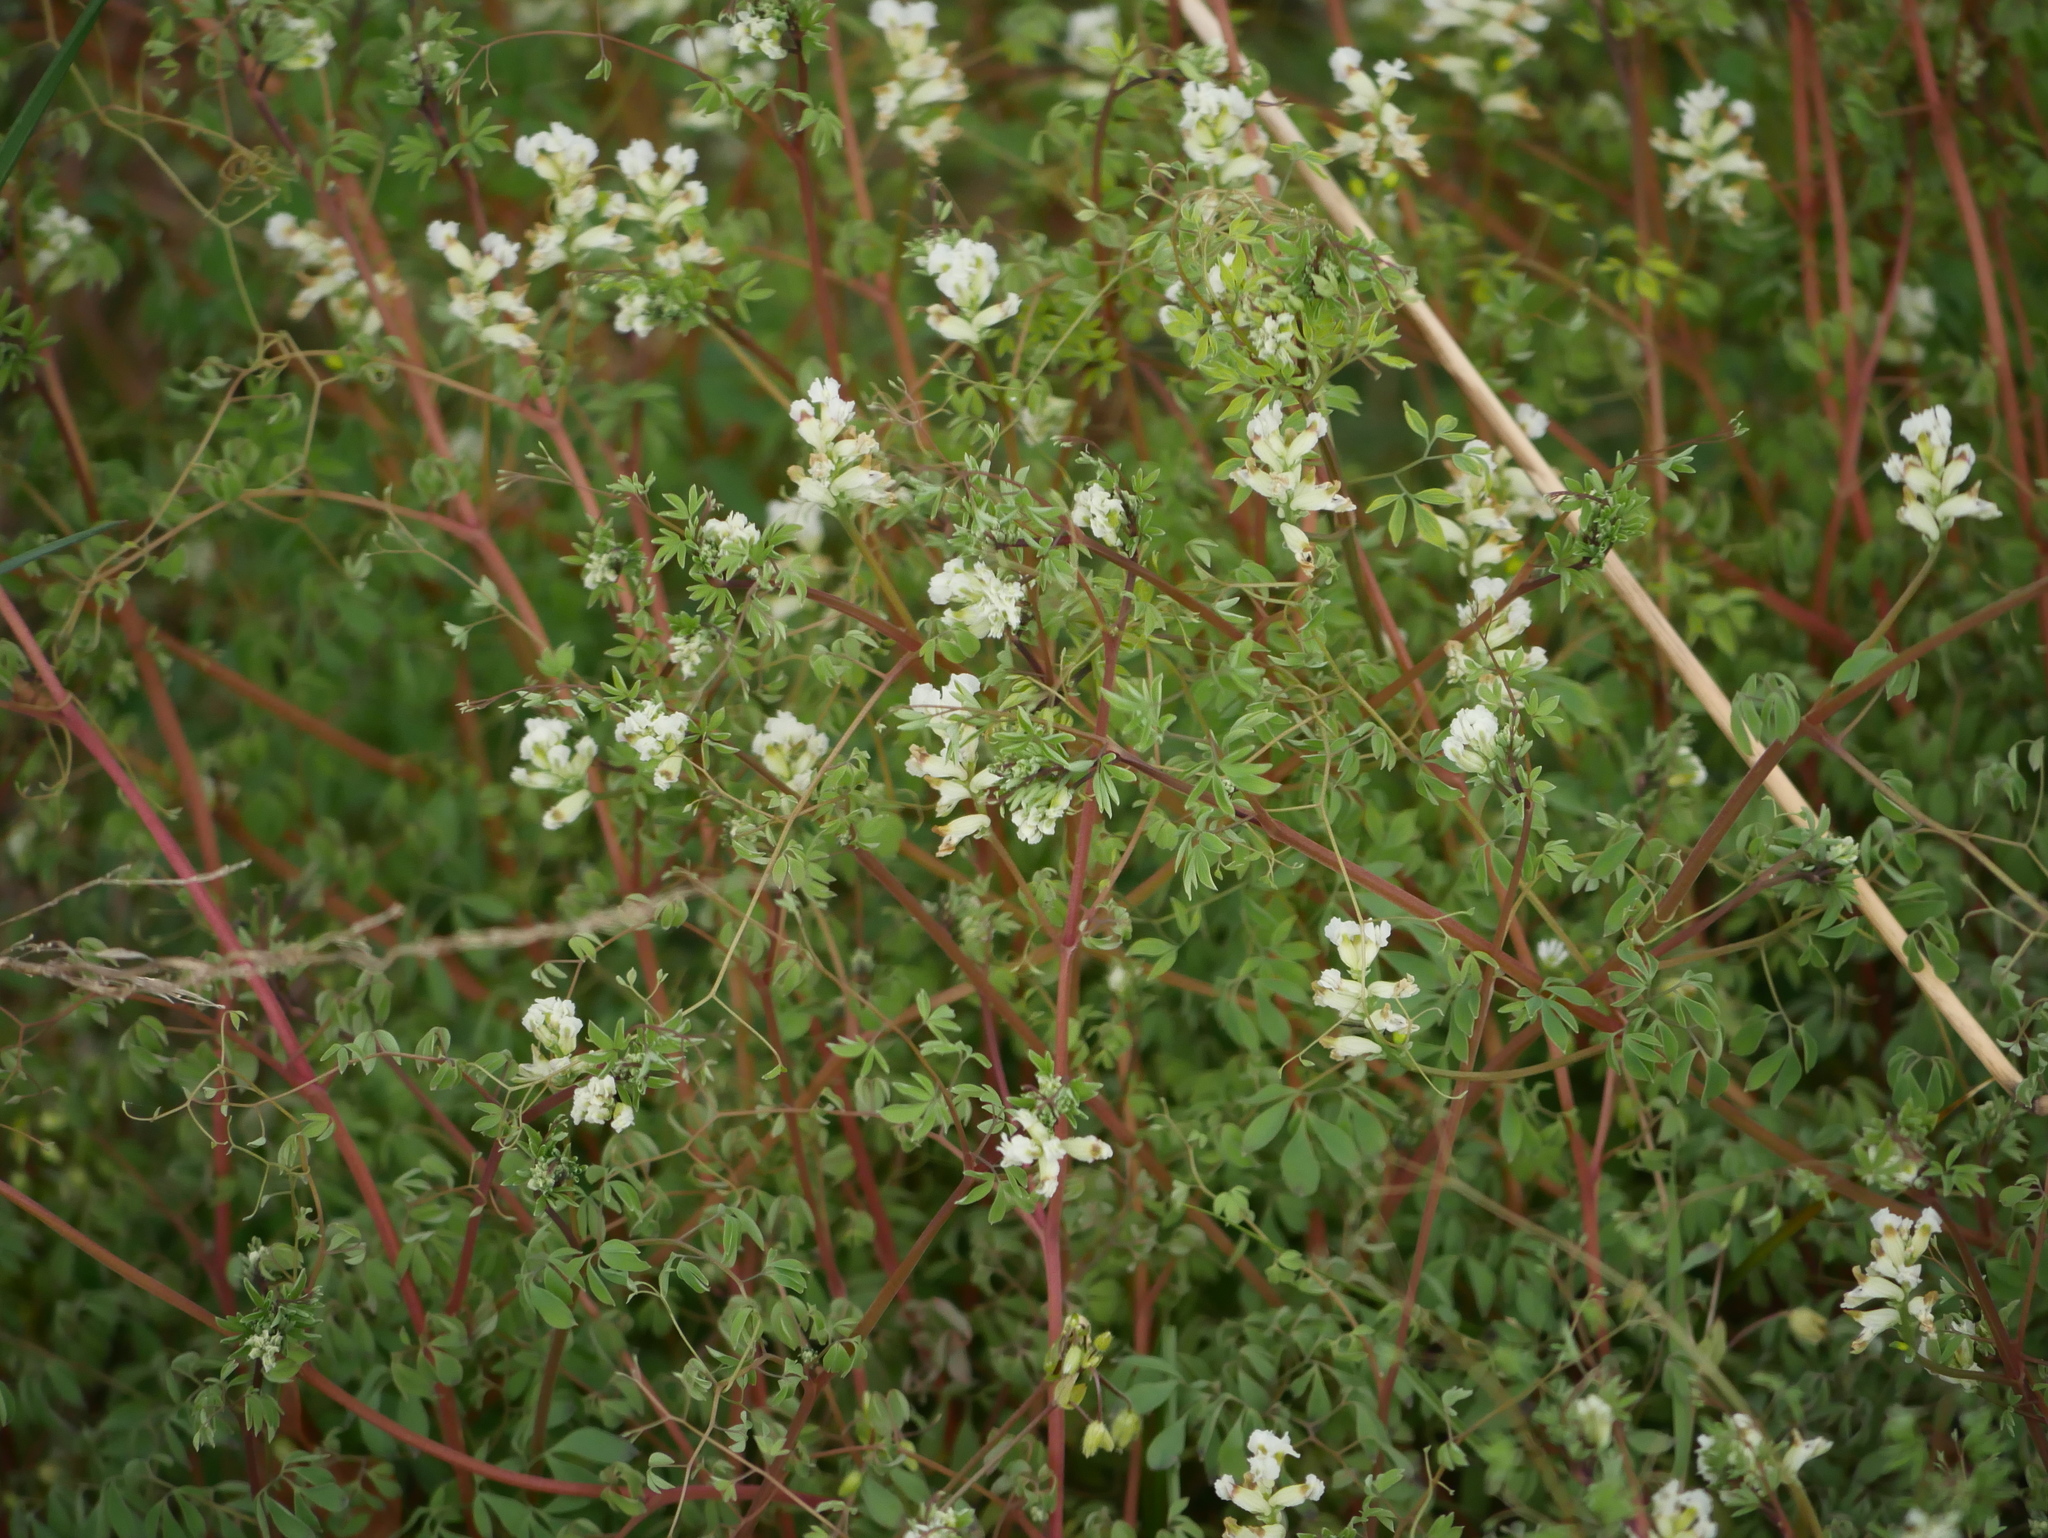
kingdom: Plantae
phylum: Tracheophyta
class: Magnoliopsida
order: Ranunculales
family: Papaveraceae
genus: Ceratocapnos
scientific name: Ceratocapnos claviculata
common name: Climbing corydalis
